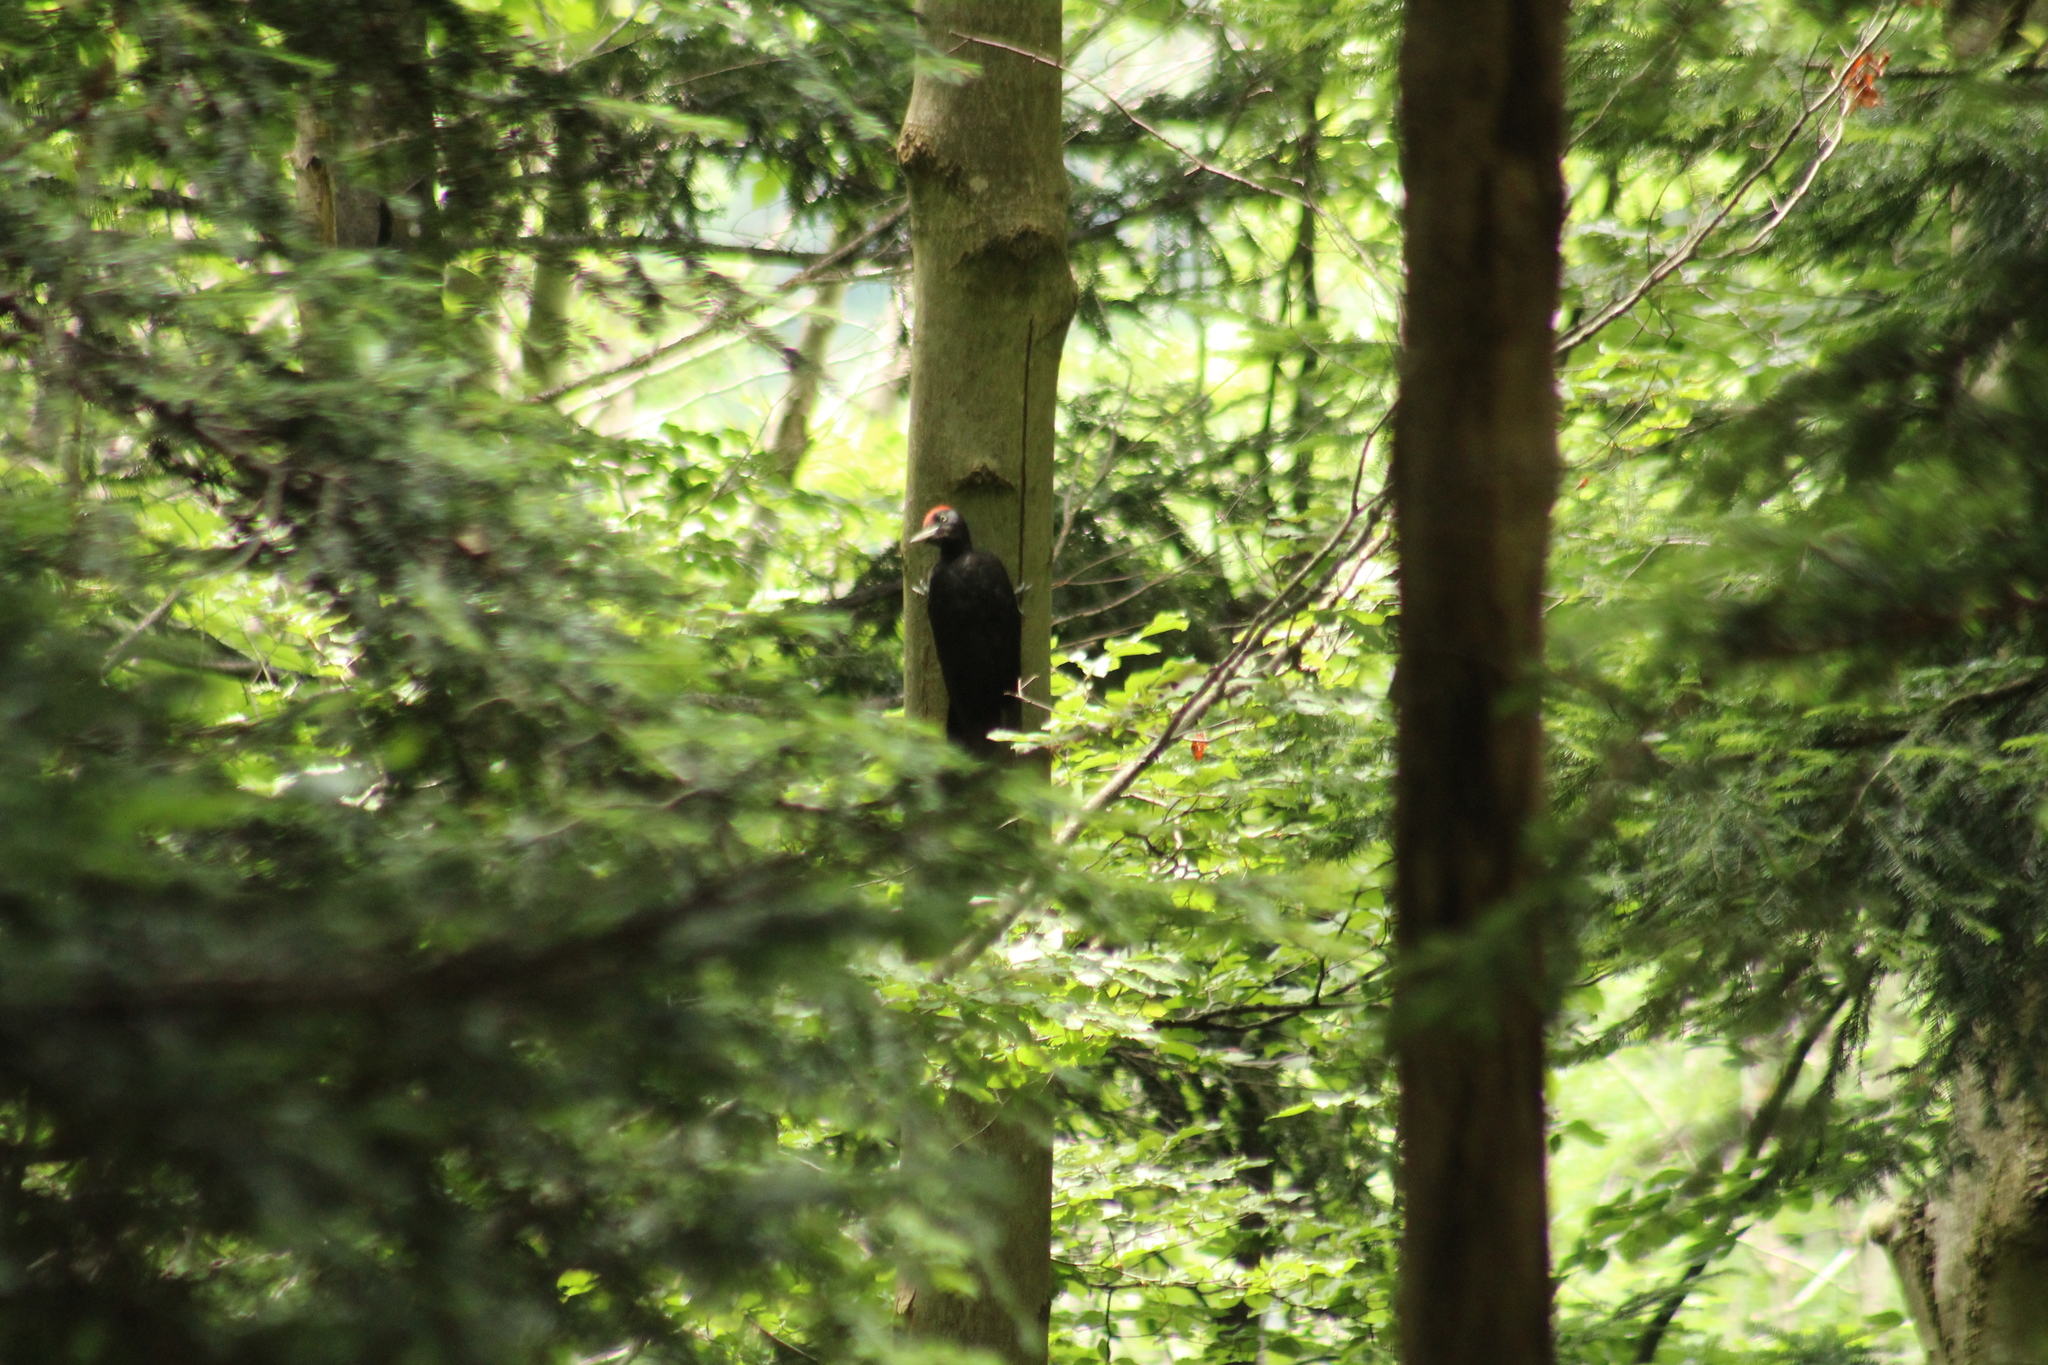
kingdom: Animalia
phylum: Chordata
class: Aves
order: Piciformes
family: Picidae
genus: Dryocopus
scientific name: Dryocopus martius
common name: Black woodpecker
